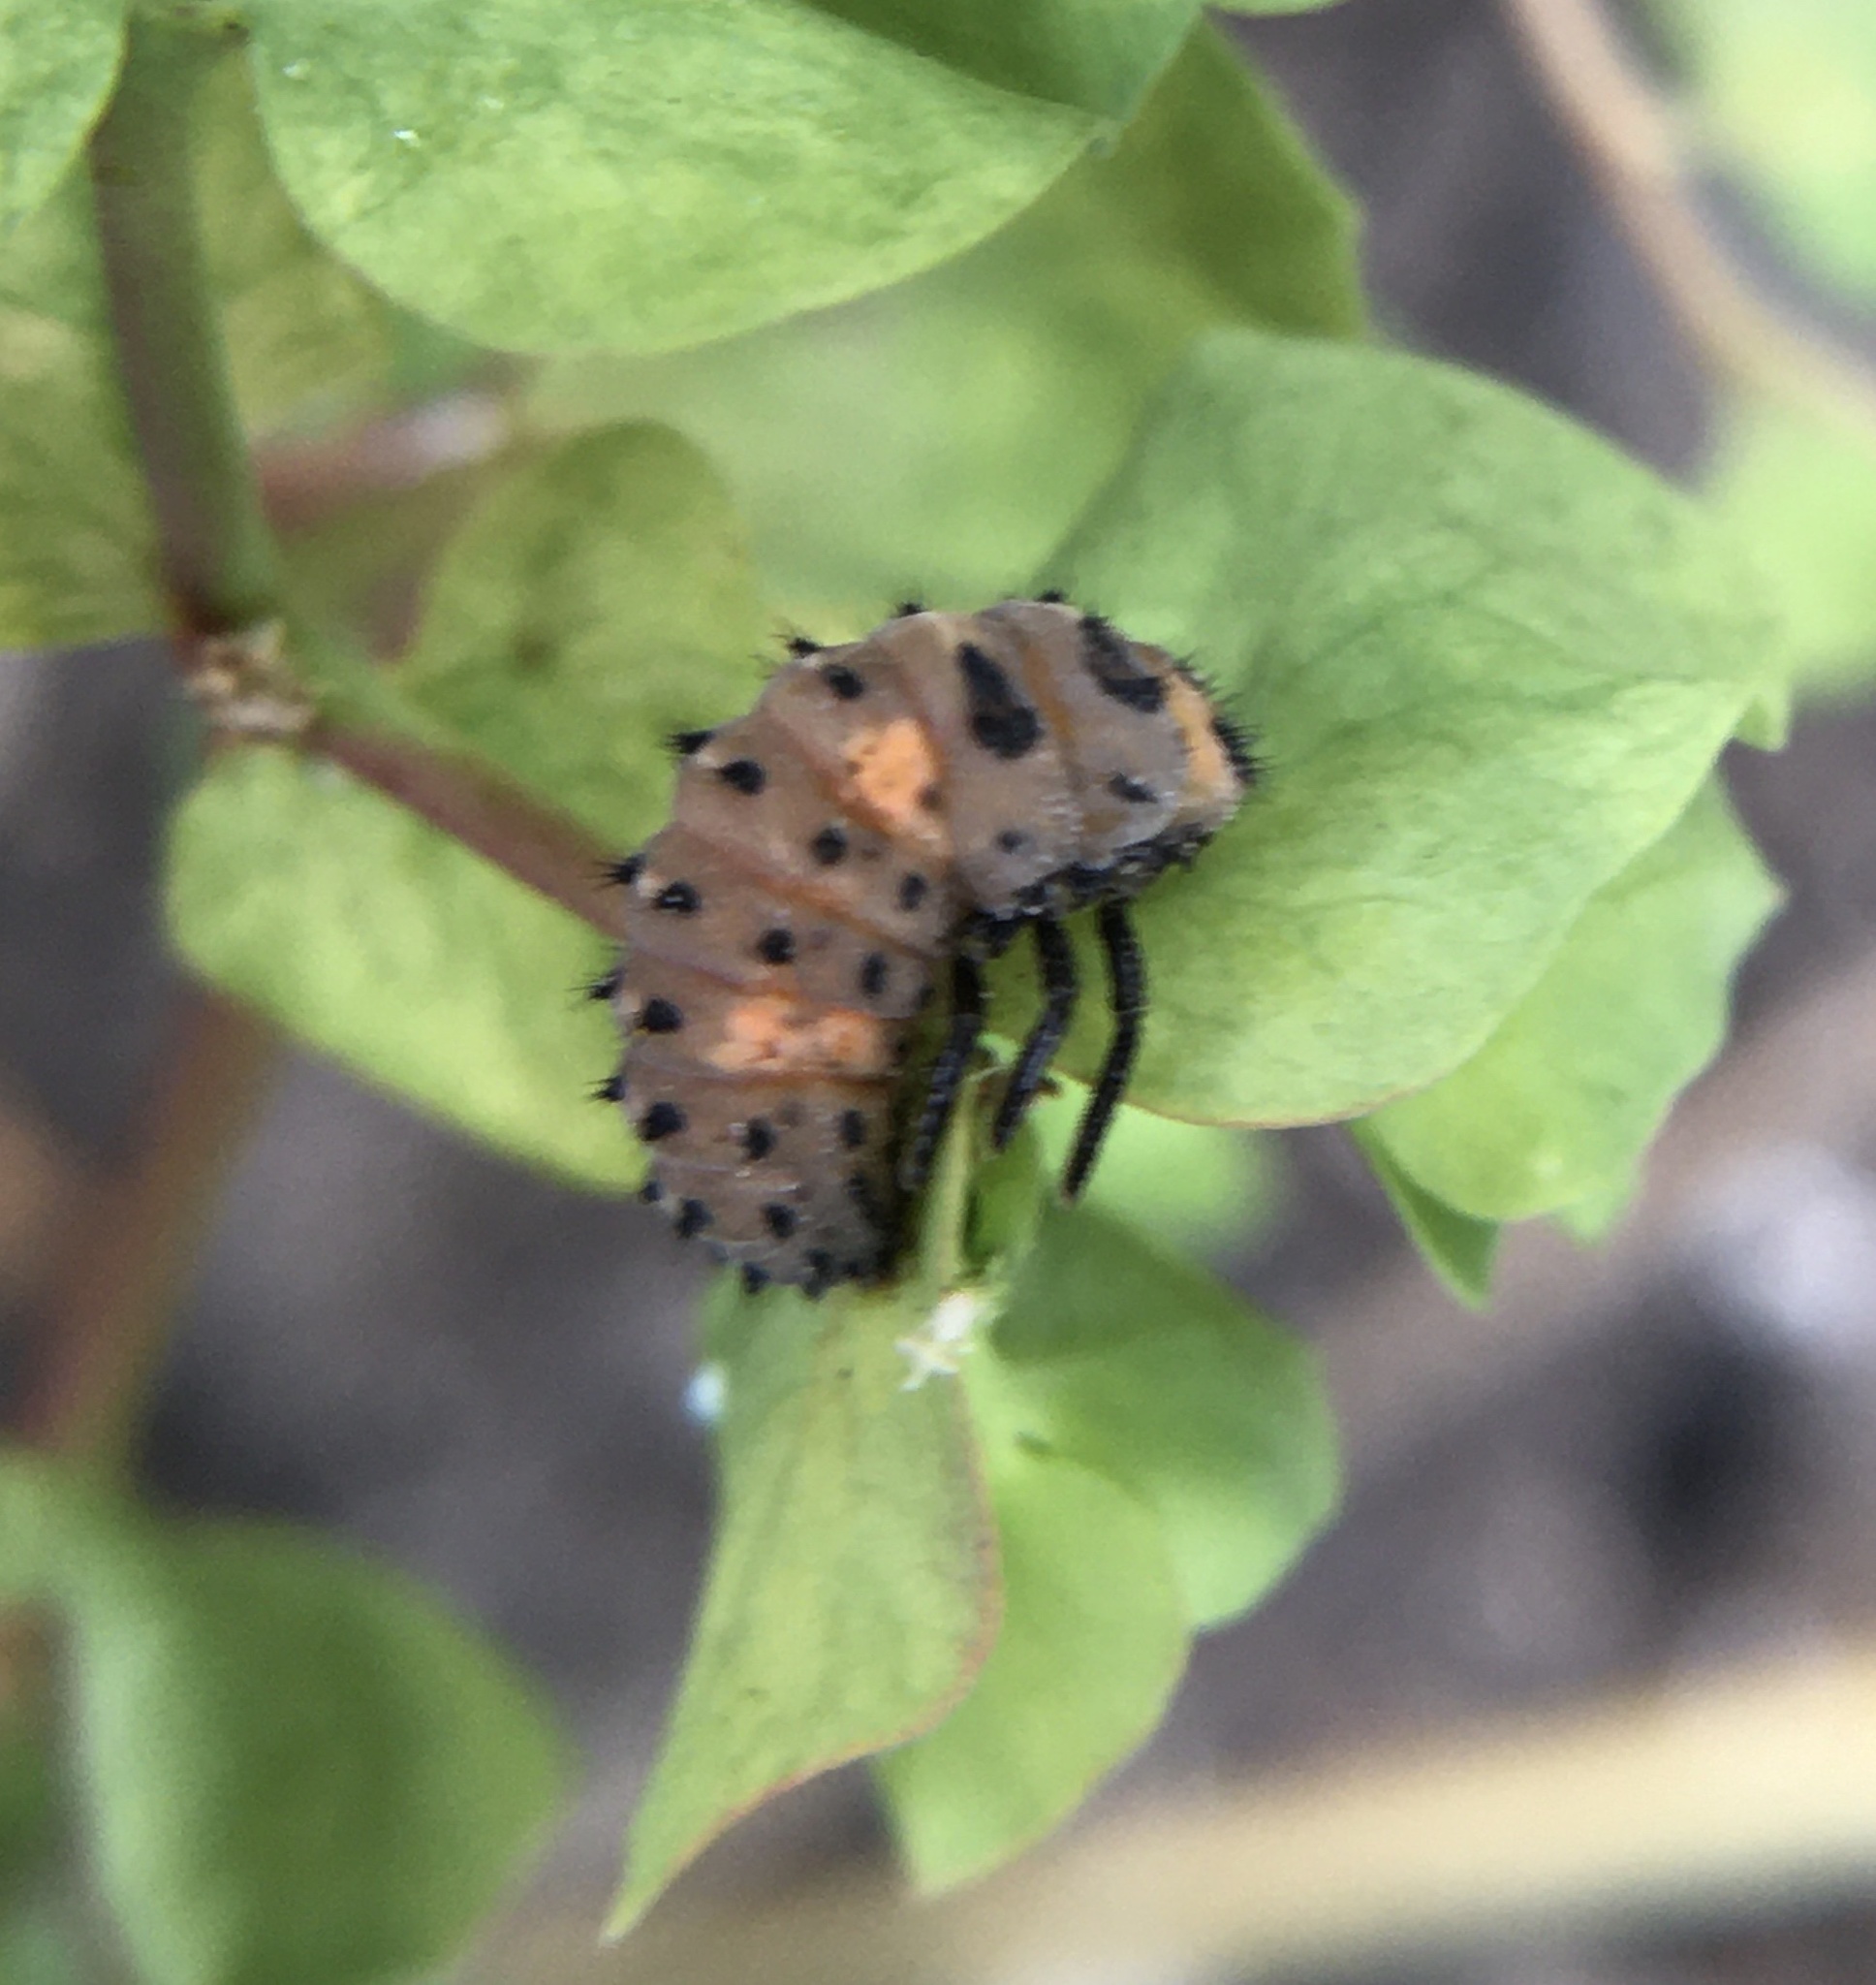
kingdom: Animalia
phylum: Arthropoda
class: Insecta
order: Coleoptera
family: Coccinellidae
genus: Coccinella
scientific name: Coccinella septempunctata
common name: Sevenspotted lady beetle
